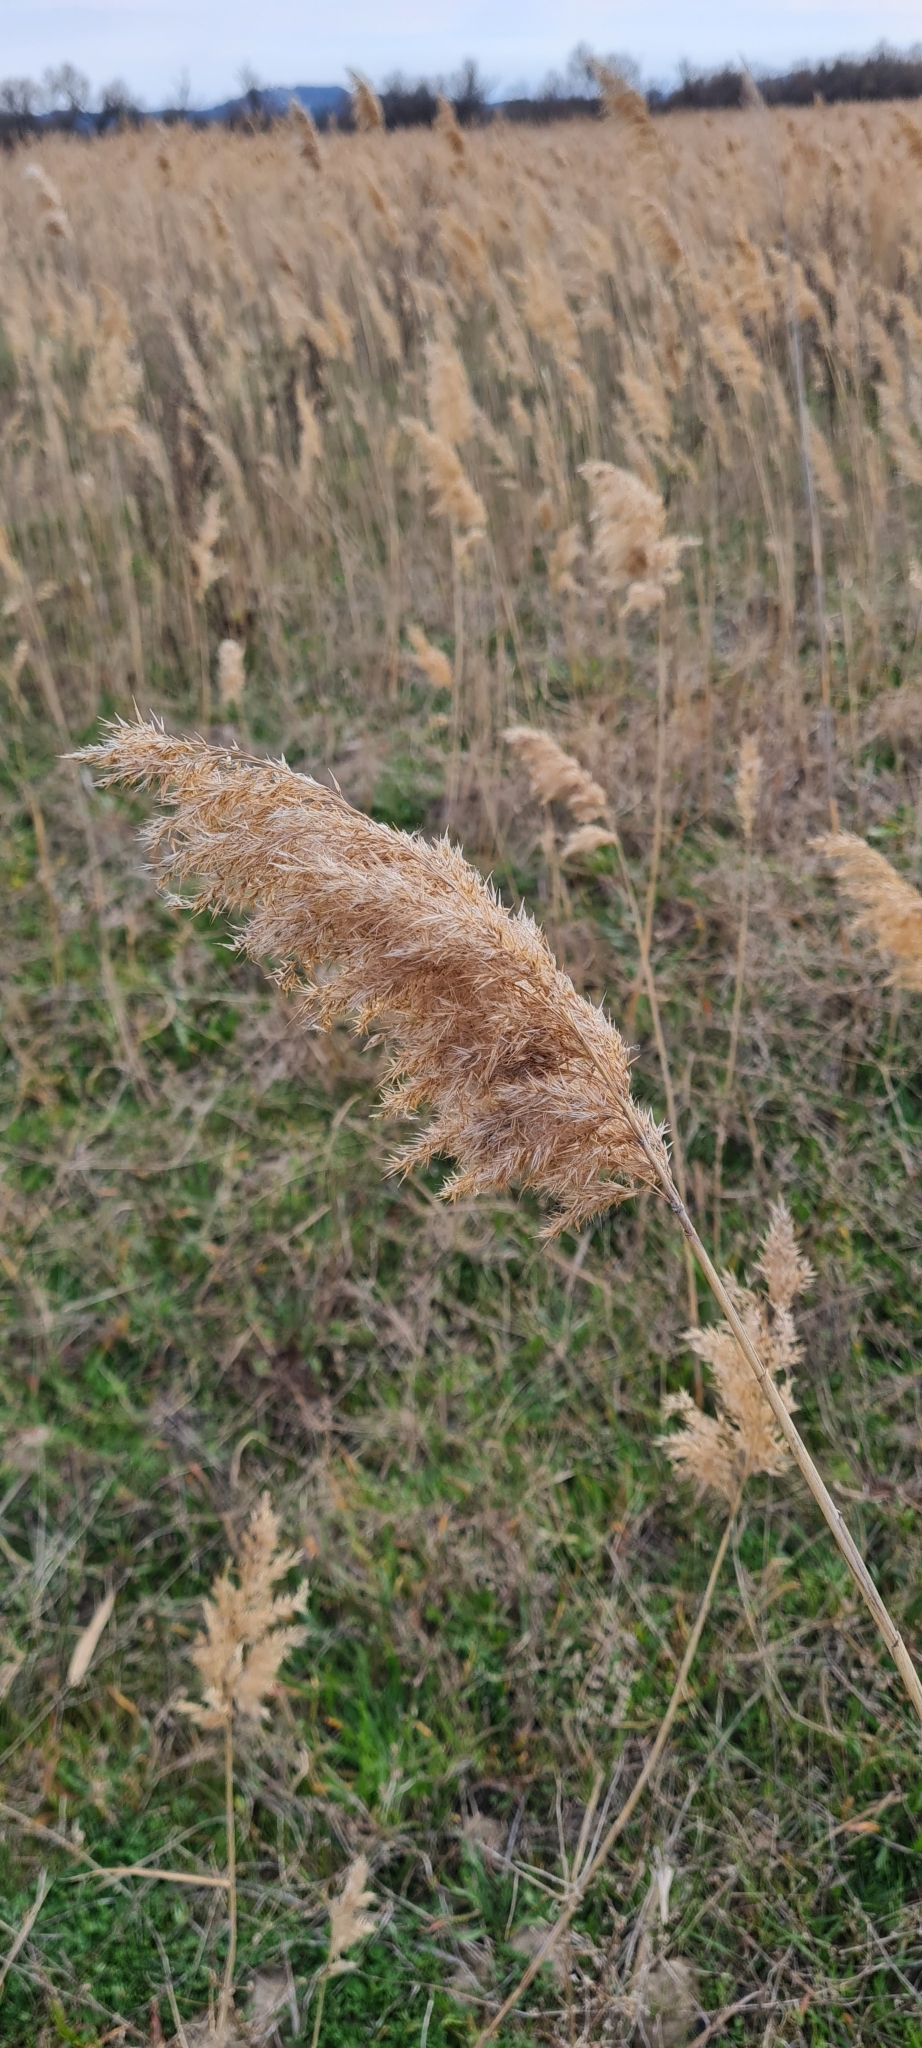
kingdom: Plantae
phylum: Tracheophyta
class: Liliopsida
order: Poales
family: Poaceae
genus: Phragmites
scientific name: Phragmites australis
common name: Common reed
